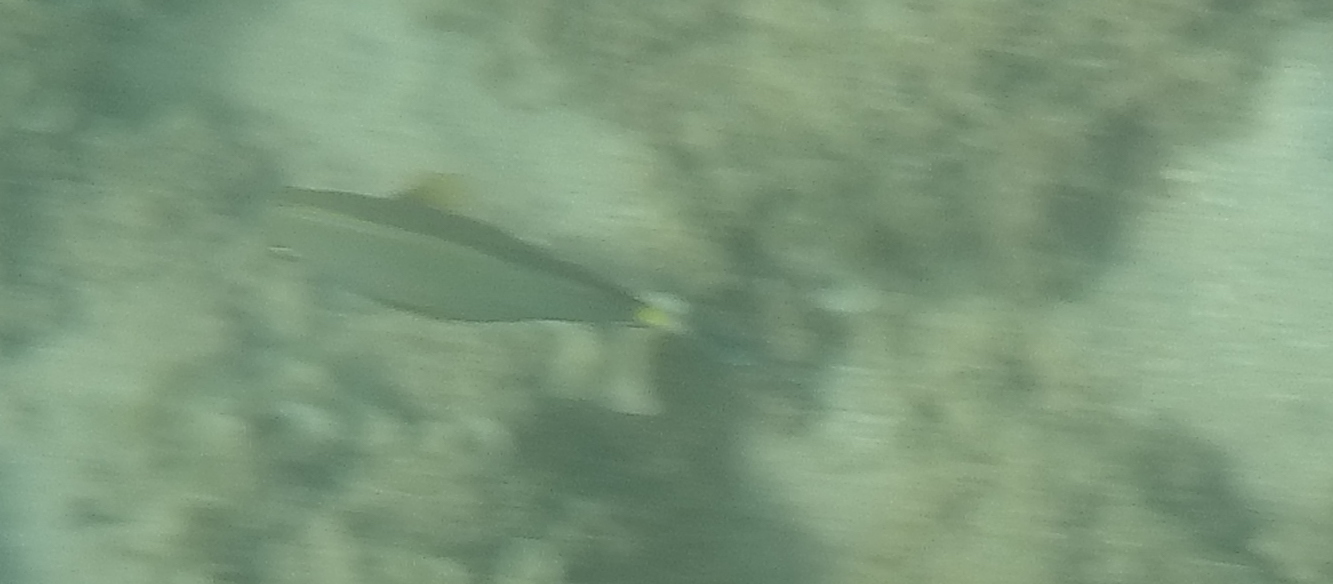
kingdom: Animalia
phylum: Chordata
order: Perciformes
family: Acanthuridae
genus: Naso
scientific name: Naso lituratus
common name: Orangespine unicornfish
